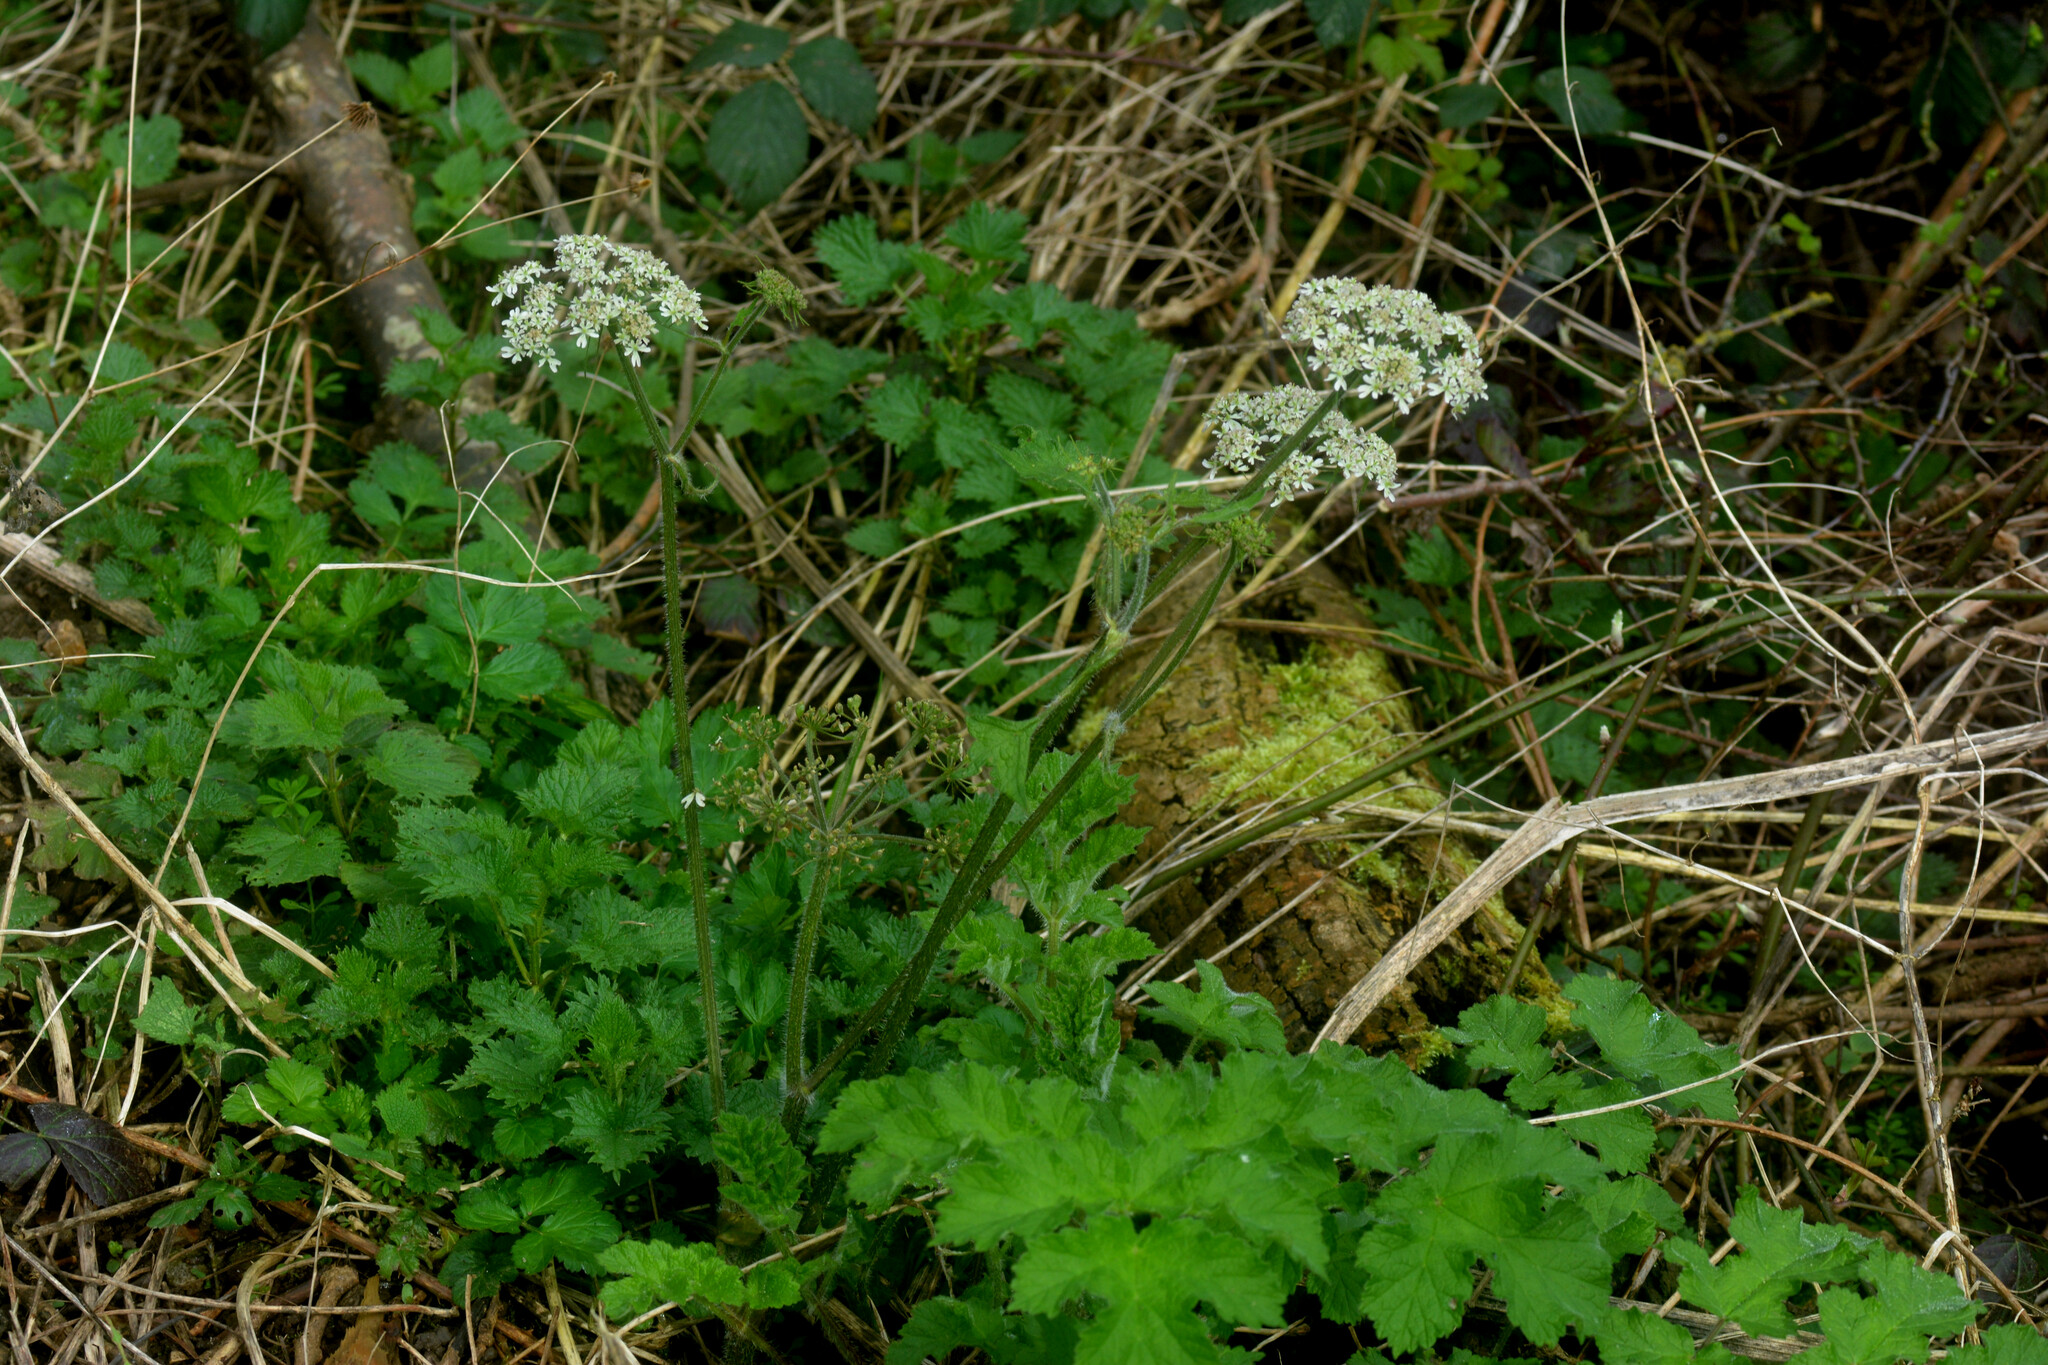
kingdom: Plantae
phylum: Tracheophyta
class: Magnoliopsida
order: Apiales
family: Apiaceae
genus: Heracleum
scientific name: Heracleum sphondylium
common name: Hogweed
